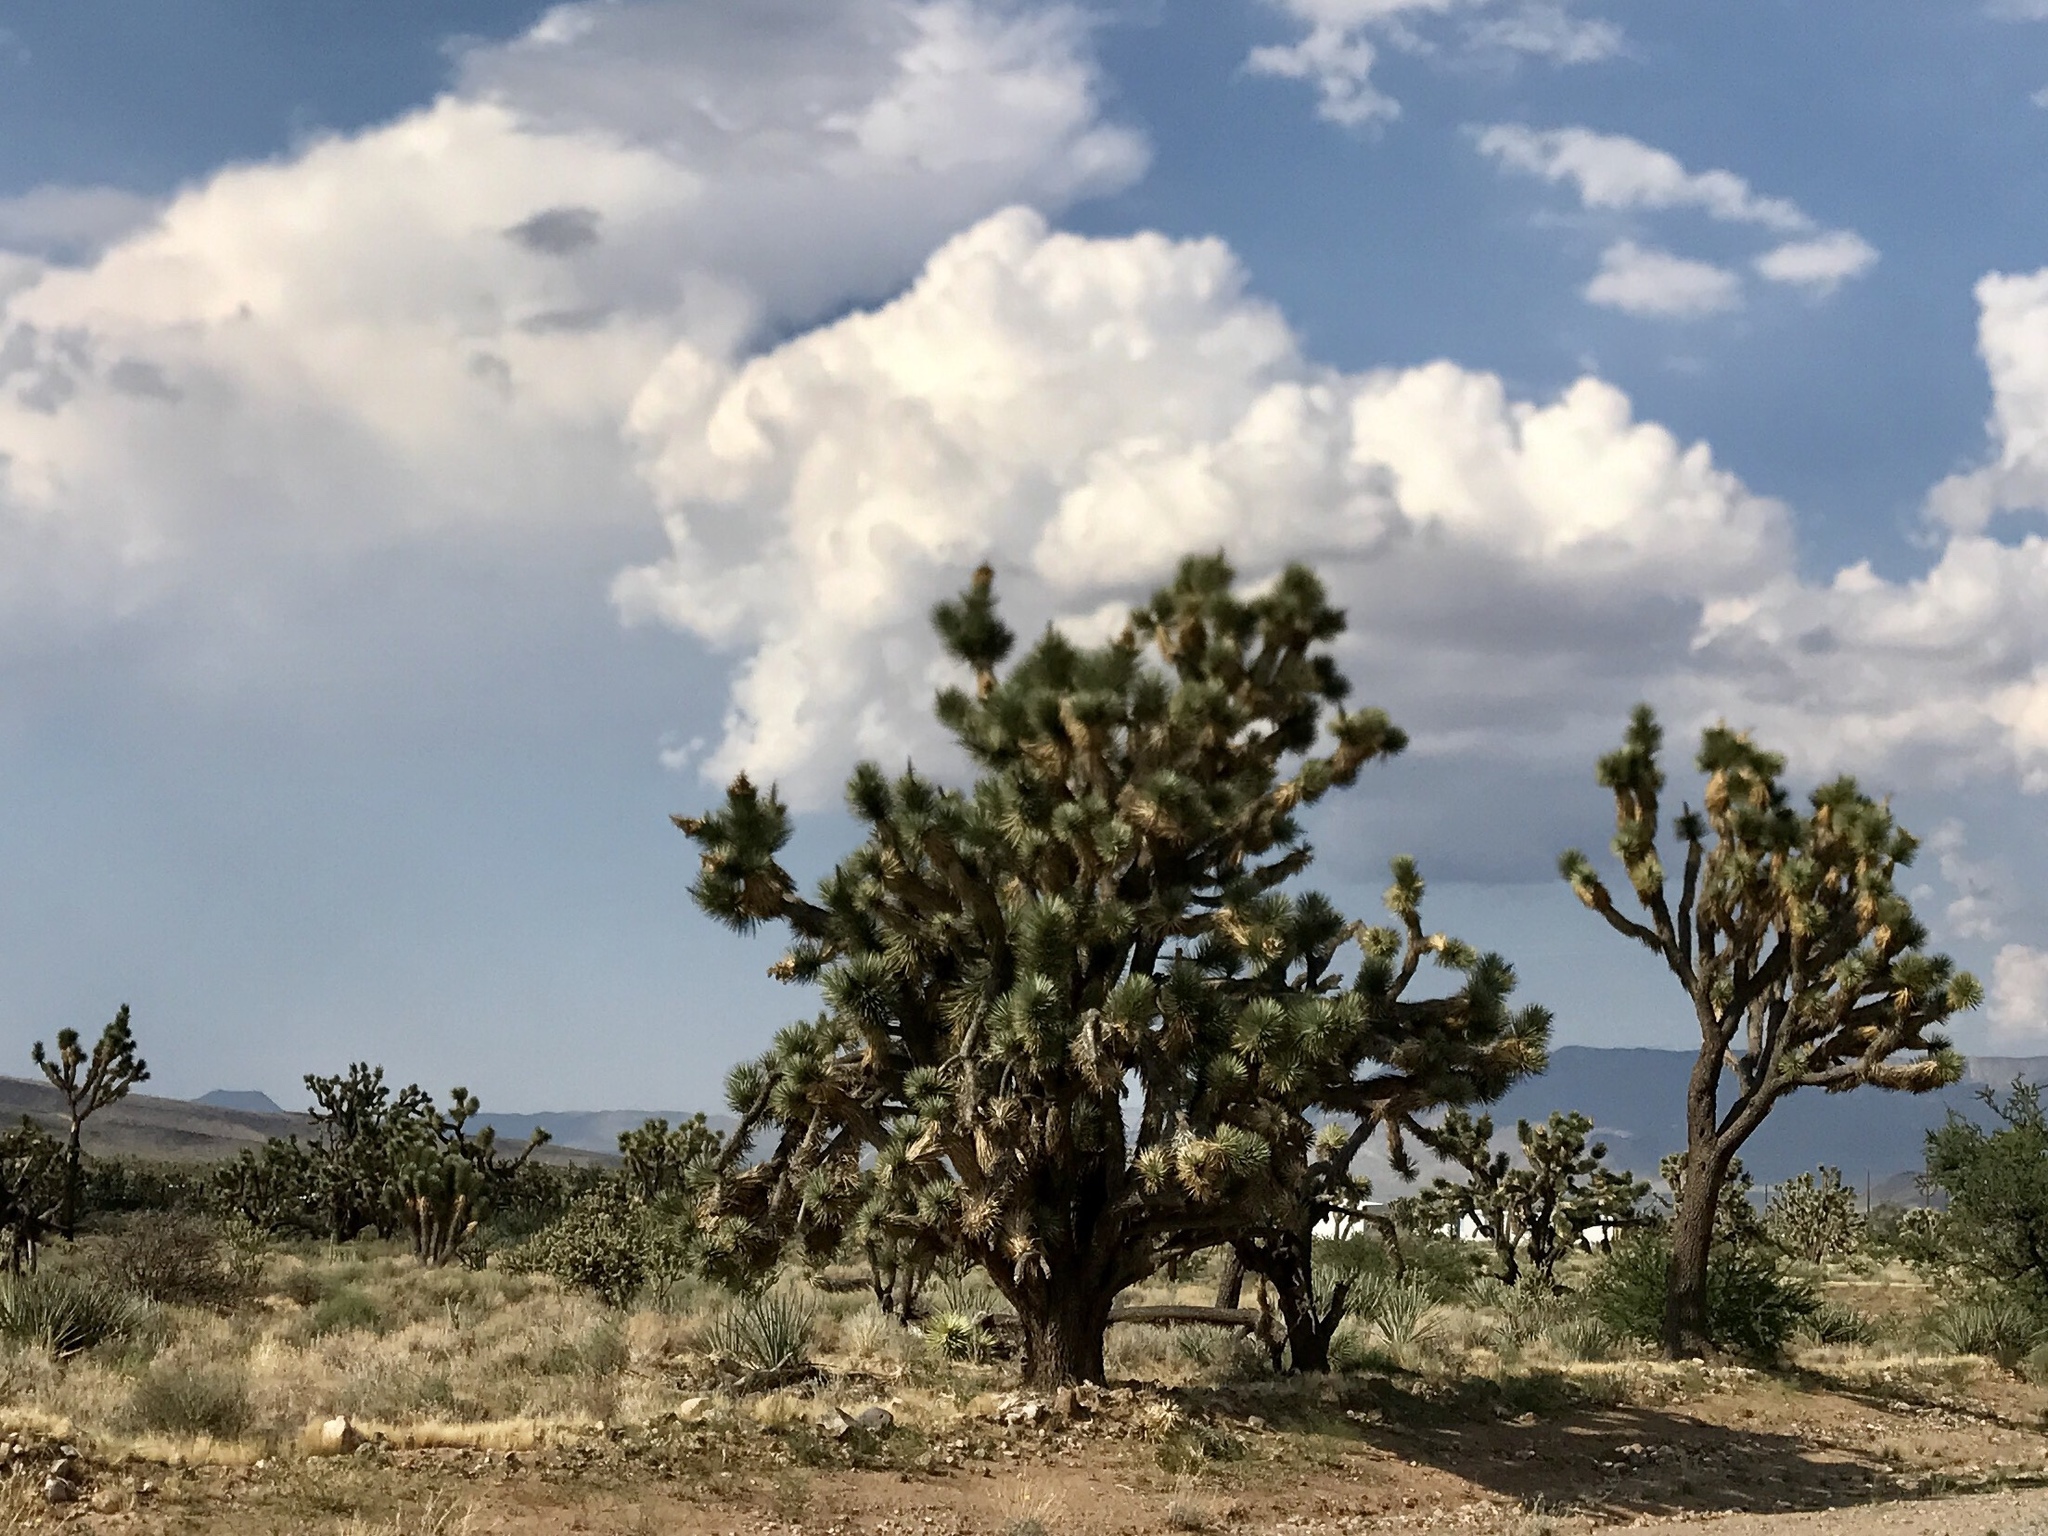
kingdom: Plantae
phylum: Tracheophyta
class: Liliopsida
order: Asparagales
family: Asparagaceae
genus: Yucca
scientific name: Yucca brevifolia
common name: Joshua tree
